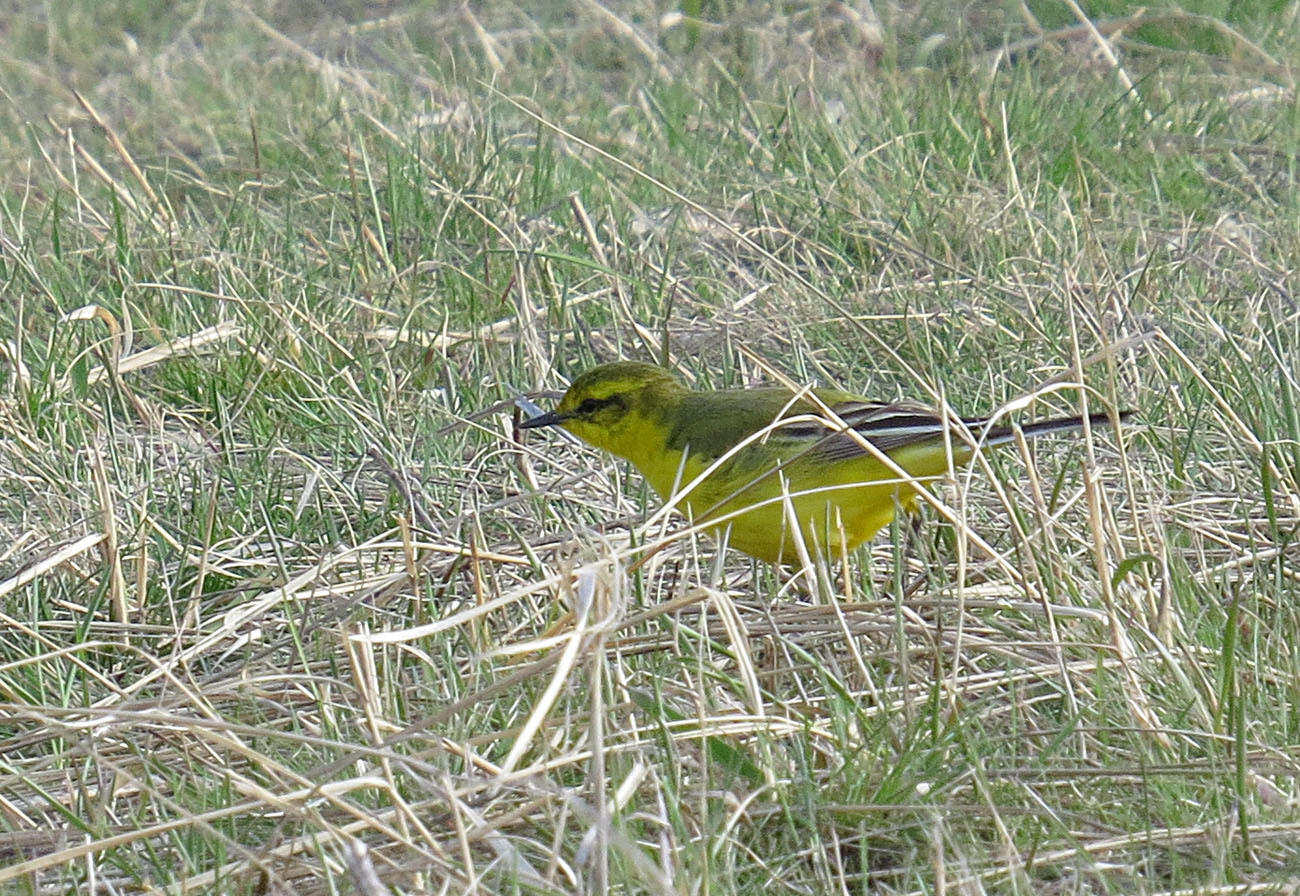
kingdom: Animalia
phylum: Chordata
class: Aves
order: Passeriformes
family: Motacillidae
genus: Motacilla
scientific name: Motacilla flava
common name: Western yellow wagtail
